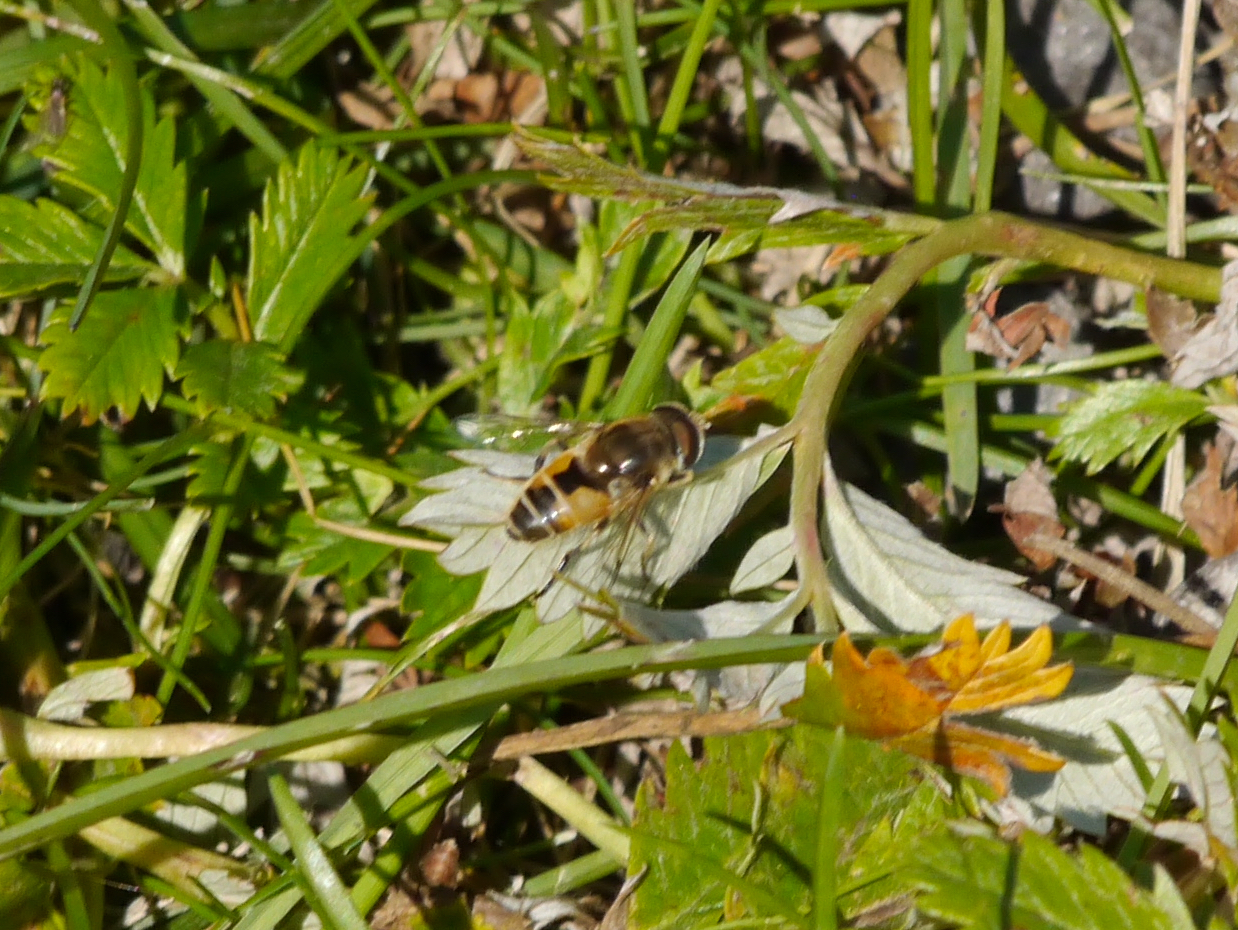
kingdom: Animalia
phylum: Arthropoda
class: Insecta
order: Diptera
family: Syrphidae
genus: Eristalis
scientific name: Eristalis arbustorum
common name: Hover fly
